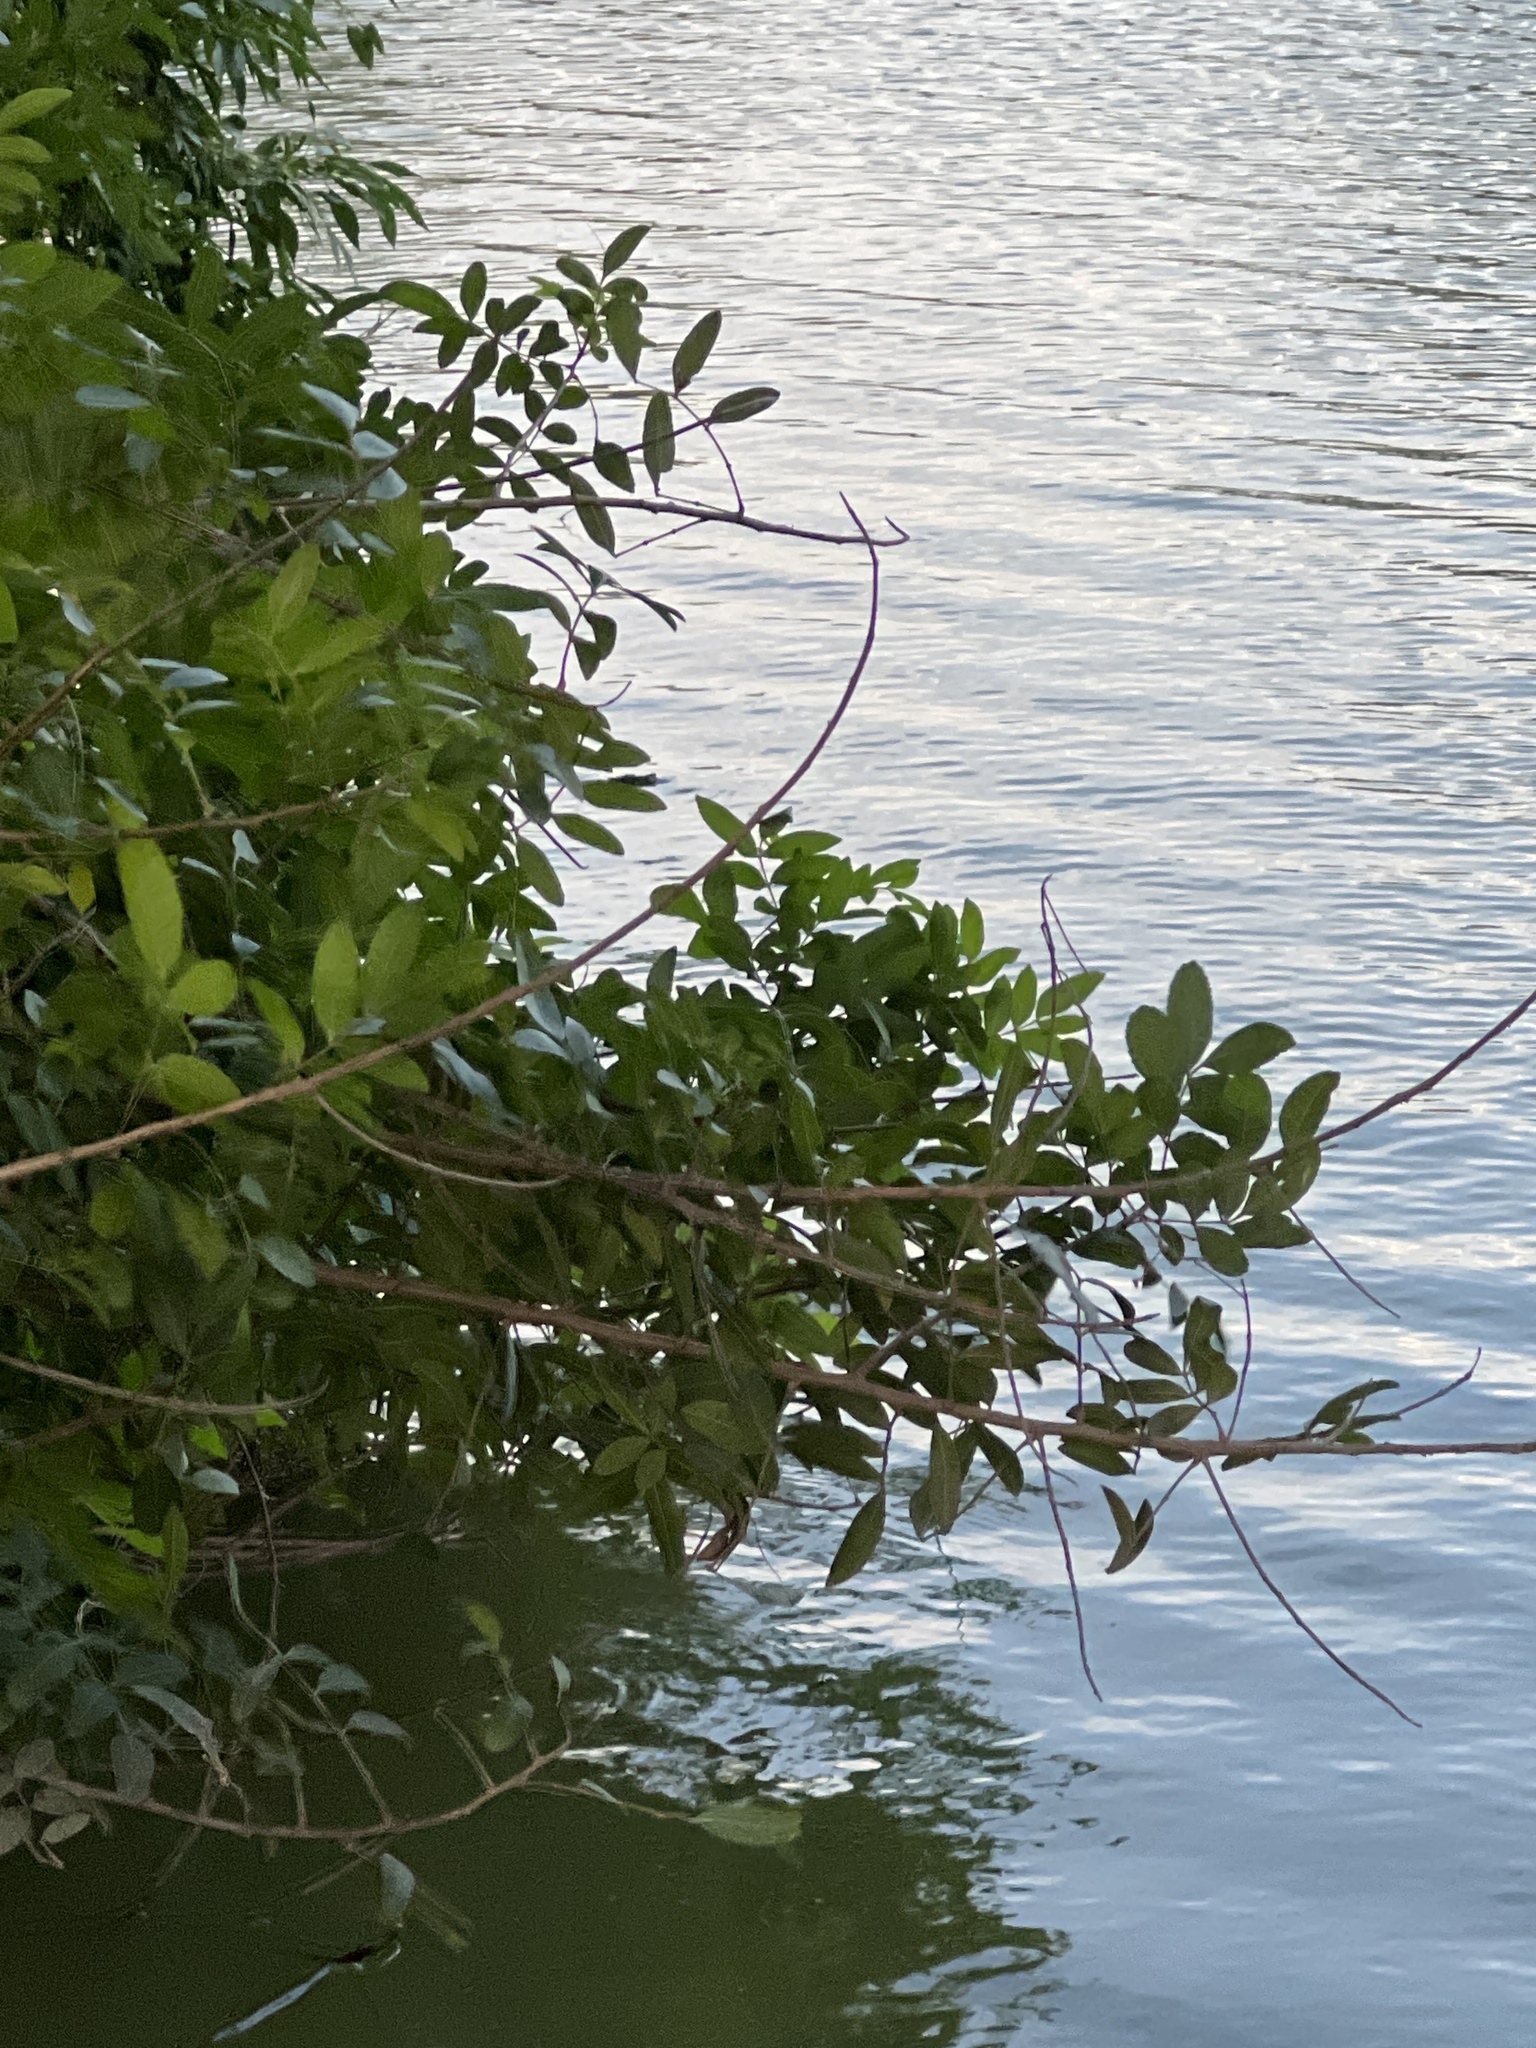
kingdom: Plantae
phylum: Tracheophyta
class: Magnoliopsida
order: Sapindales
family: Anacardiaceae
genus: Schinus
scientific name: Schinus terebinthifolia
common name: Brazilian peppertree
